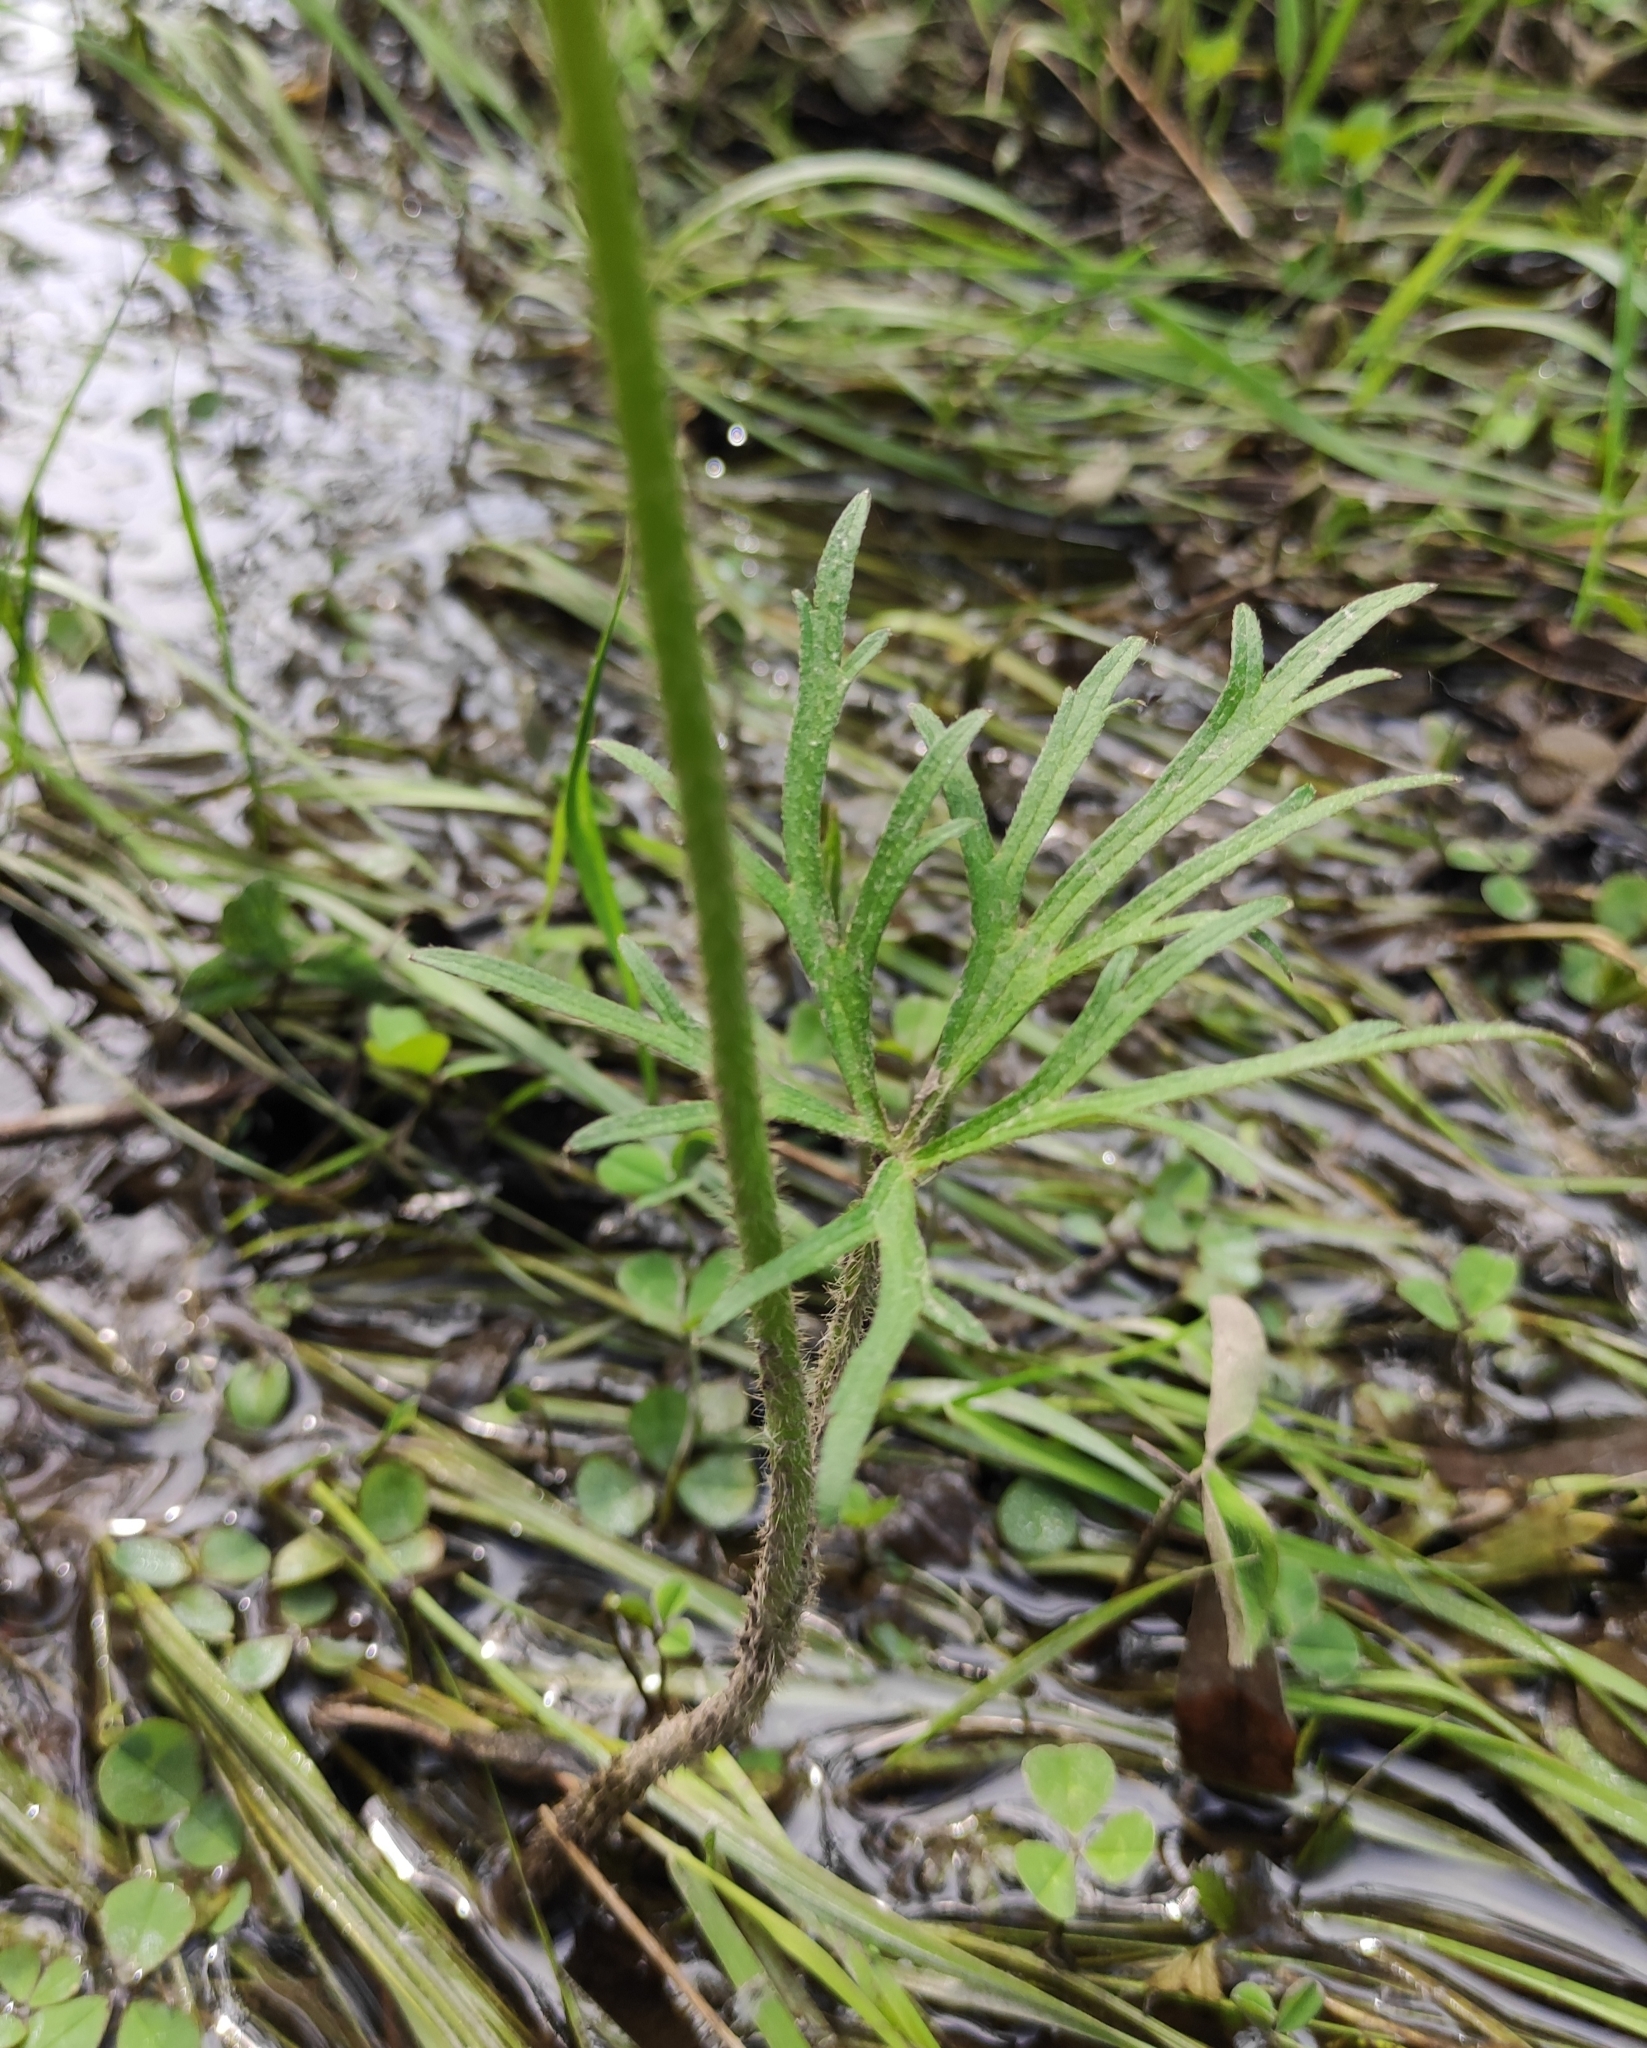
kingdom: Plantae
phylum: Tracheophyta
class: Magnoliopsida
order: Ranunculales
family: Ranunculaceae
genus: Ranunculus
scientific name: Ranunculus polyanthemos
